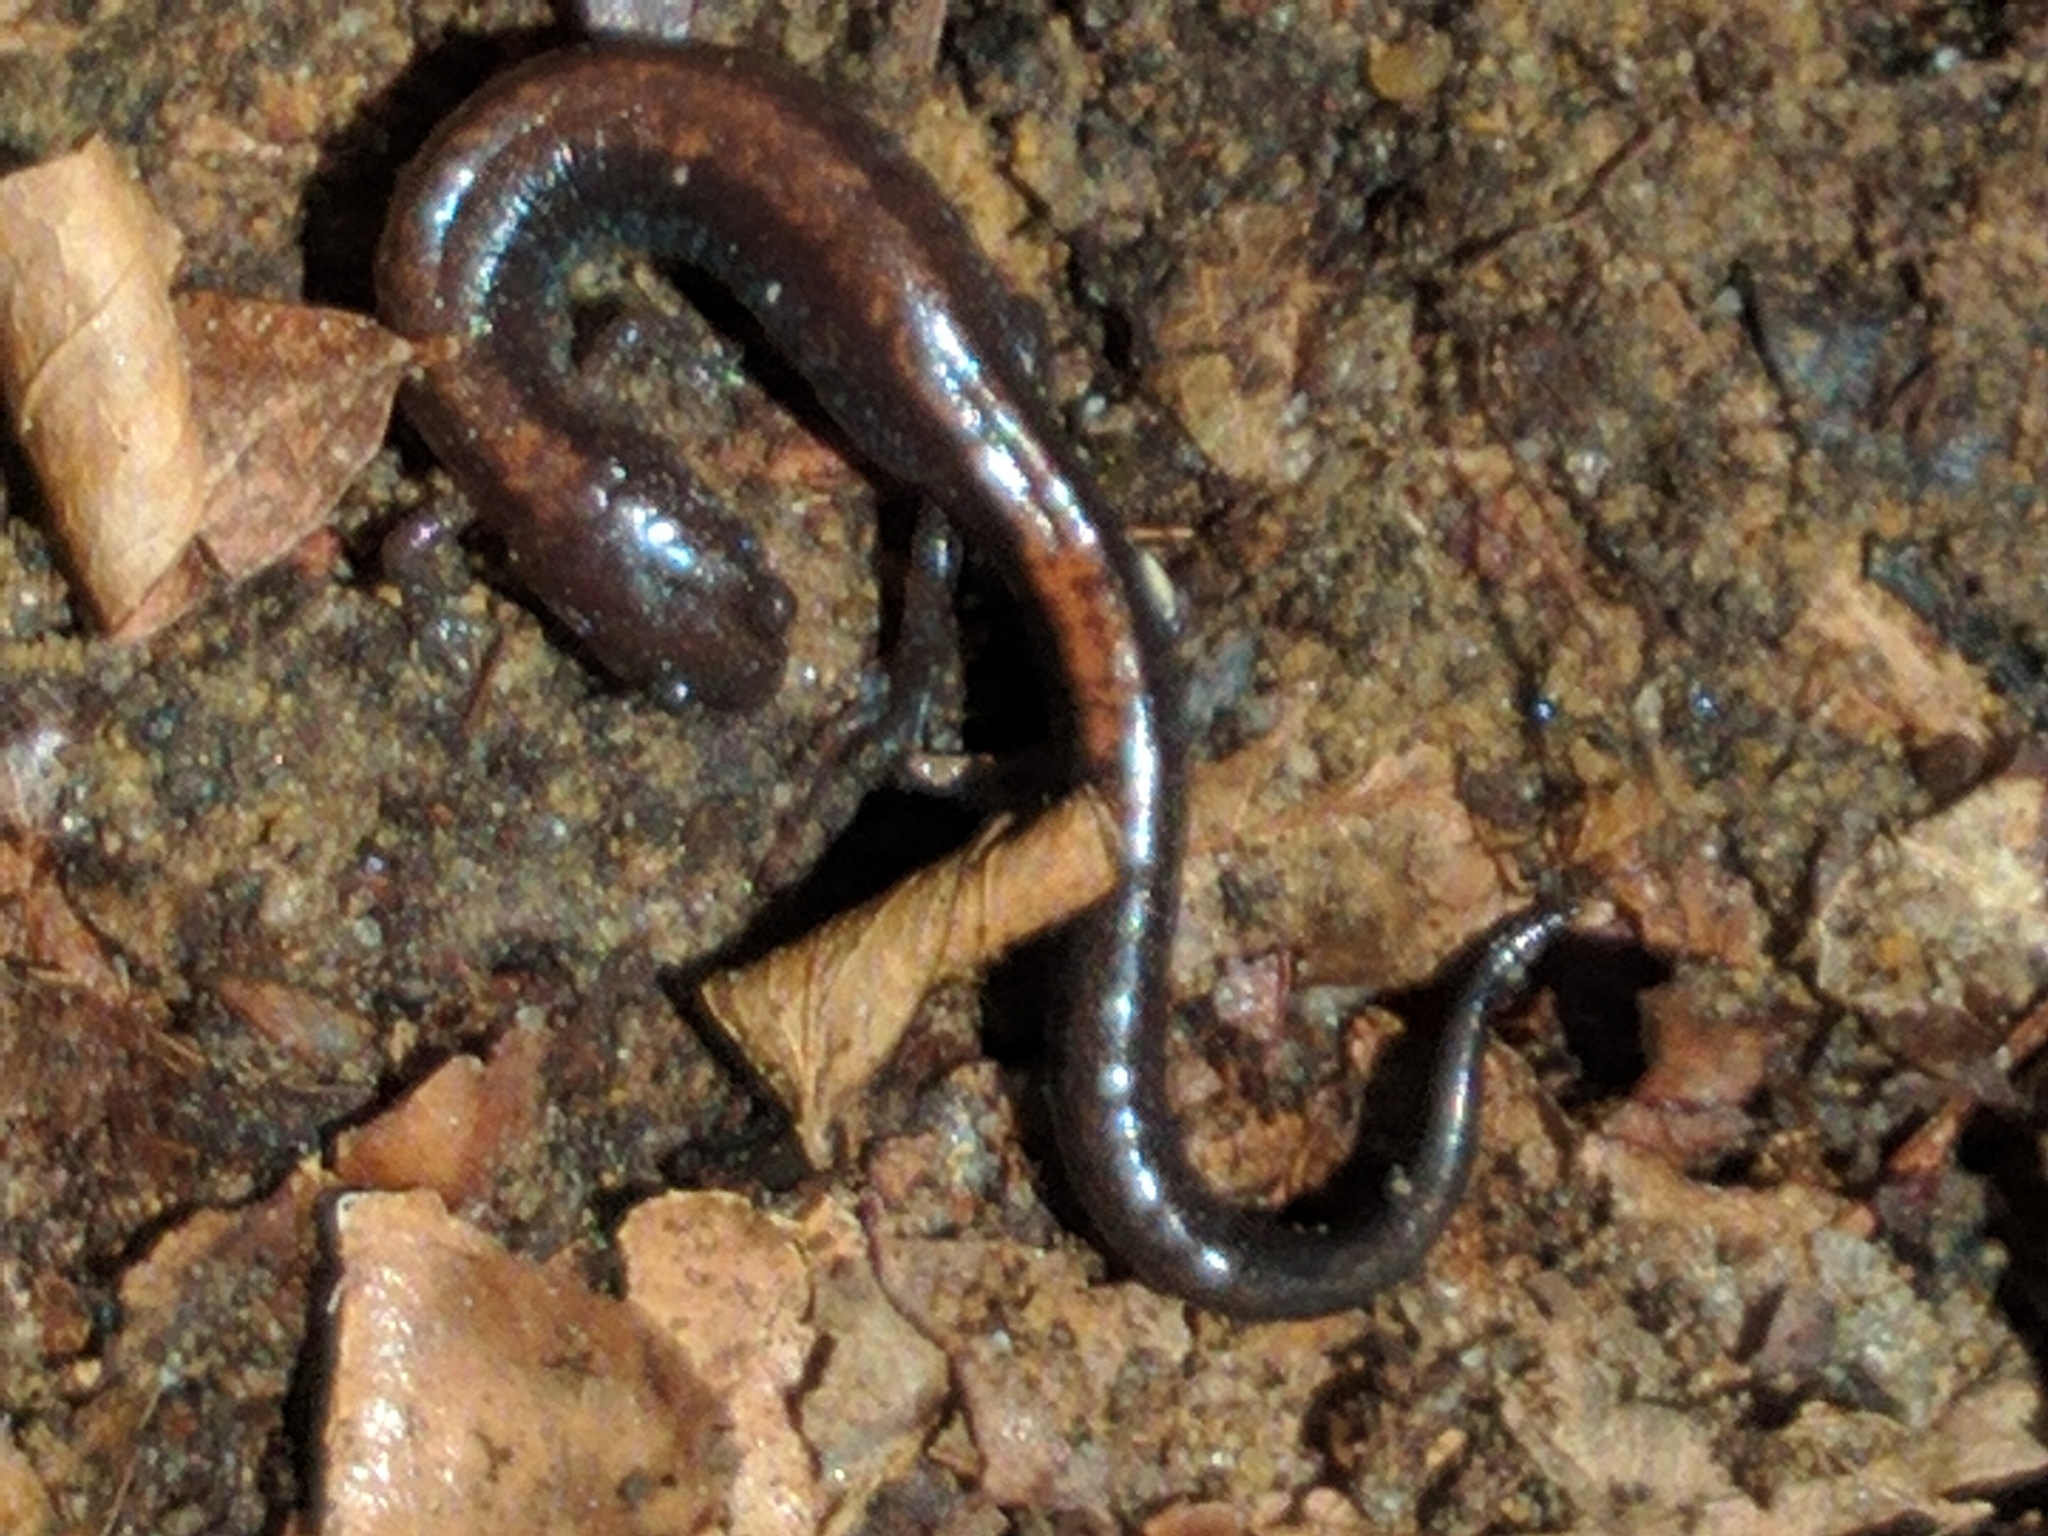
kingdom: Animalia
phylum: Chordata
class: Amphibia
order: Caudata
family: Plethodontidae
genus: Plethodon
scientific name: Plethodon cinereus
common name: Redback salamander
